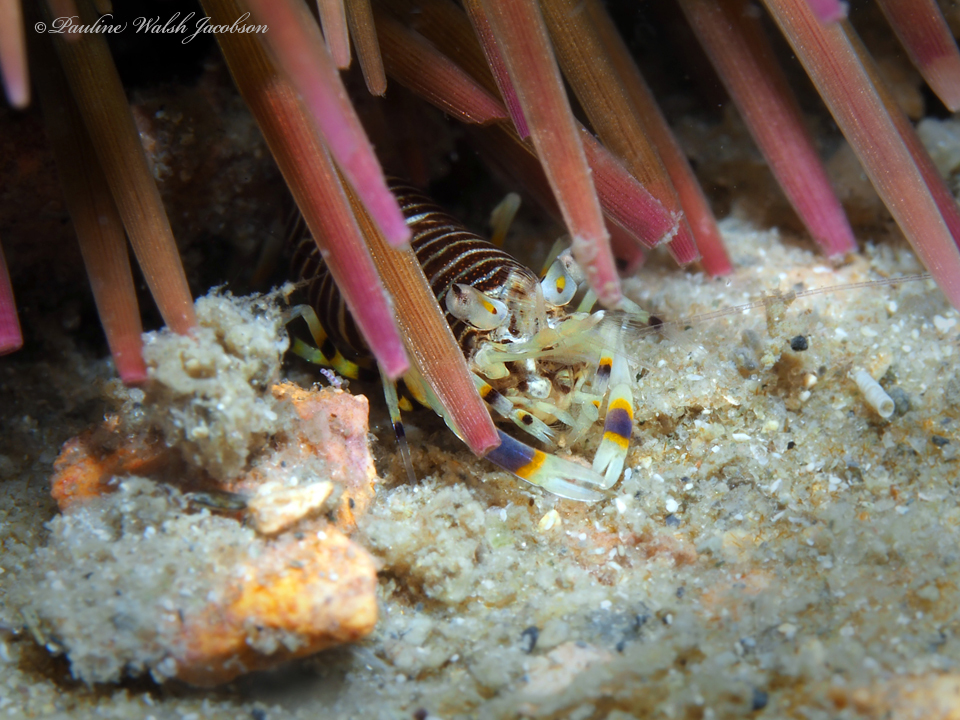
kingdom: Animalia
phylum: Arthropoda
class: Malacostraca
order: Decapoda
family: Palaemonidae
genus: Gnathophyllum
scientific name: Gnathophyllum americanum
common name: Bumblebee shrimp
